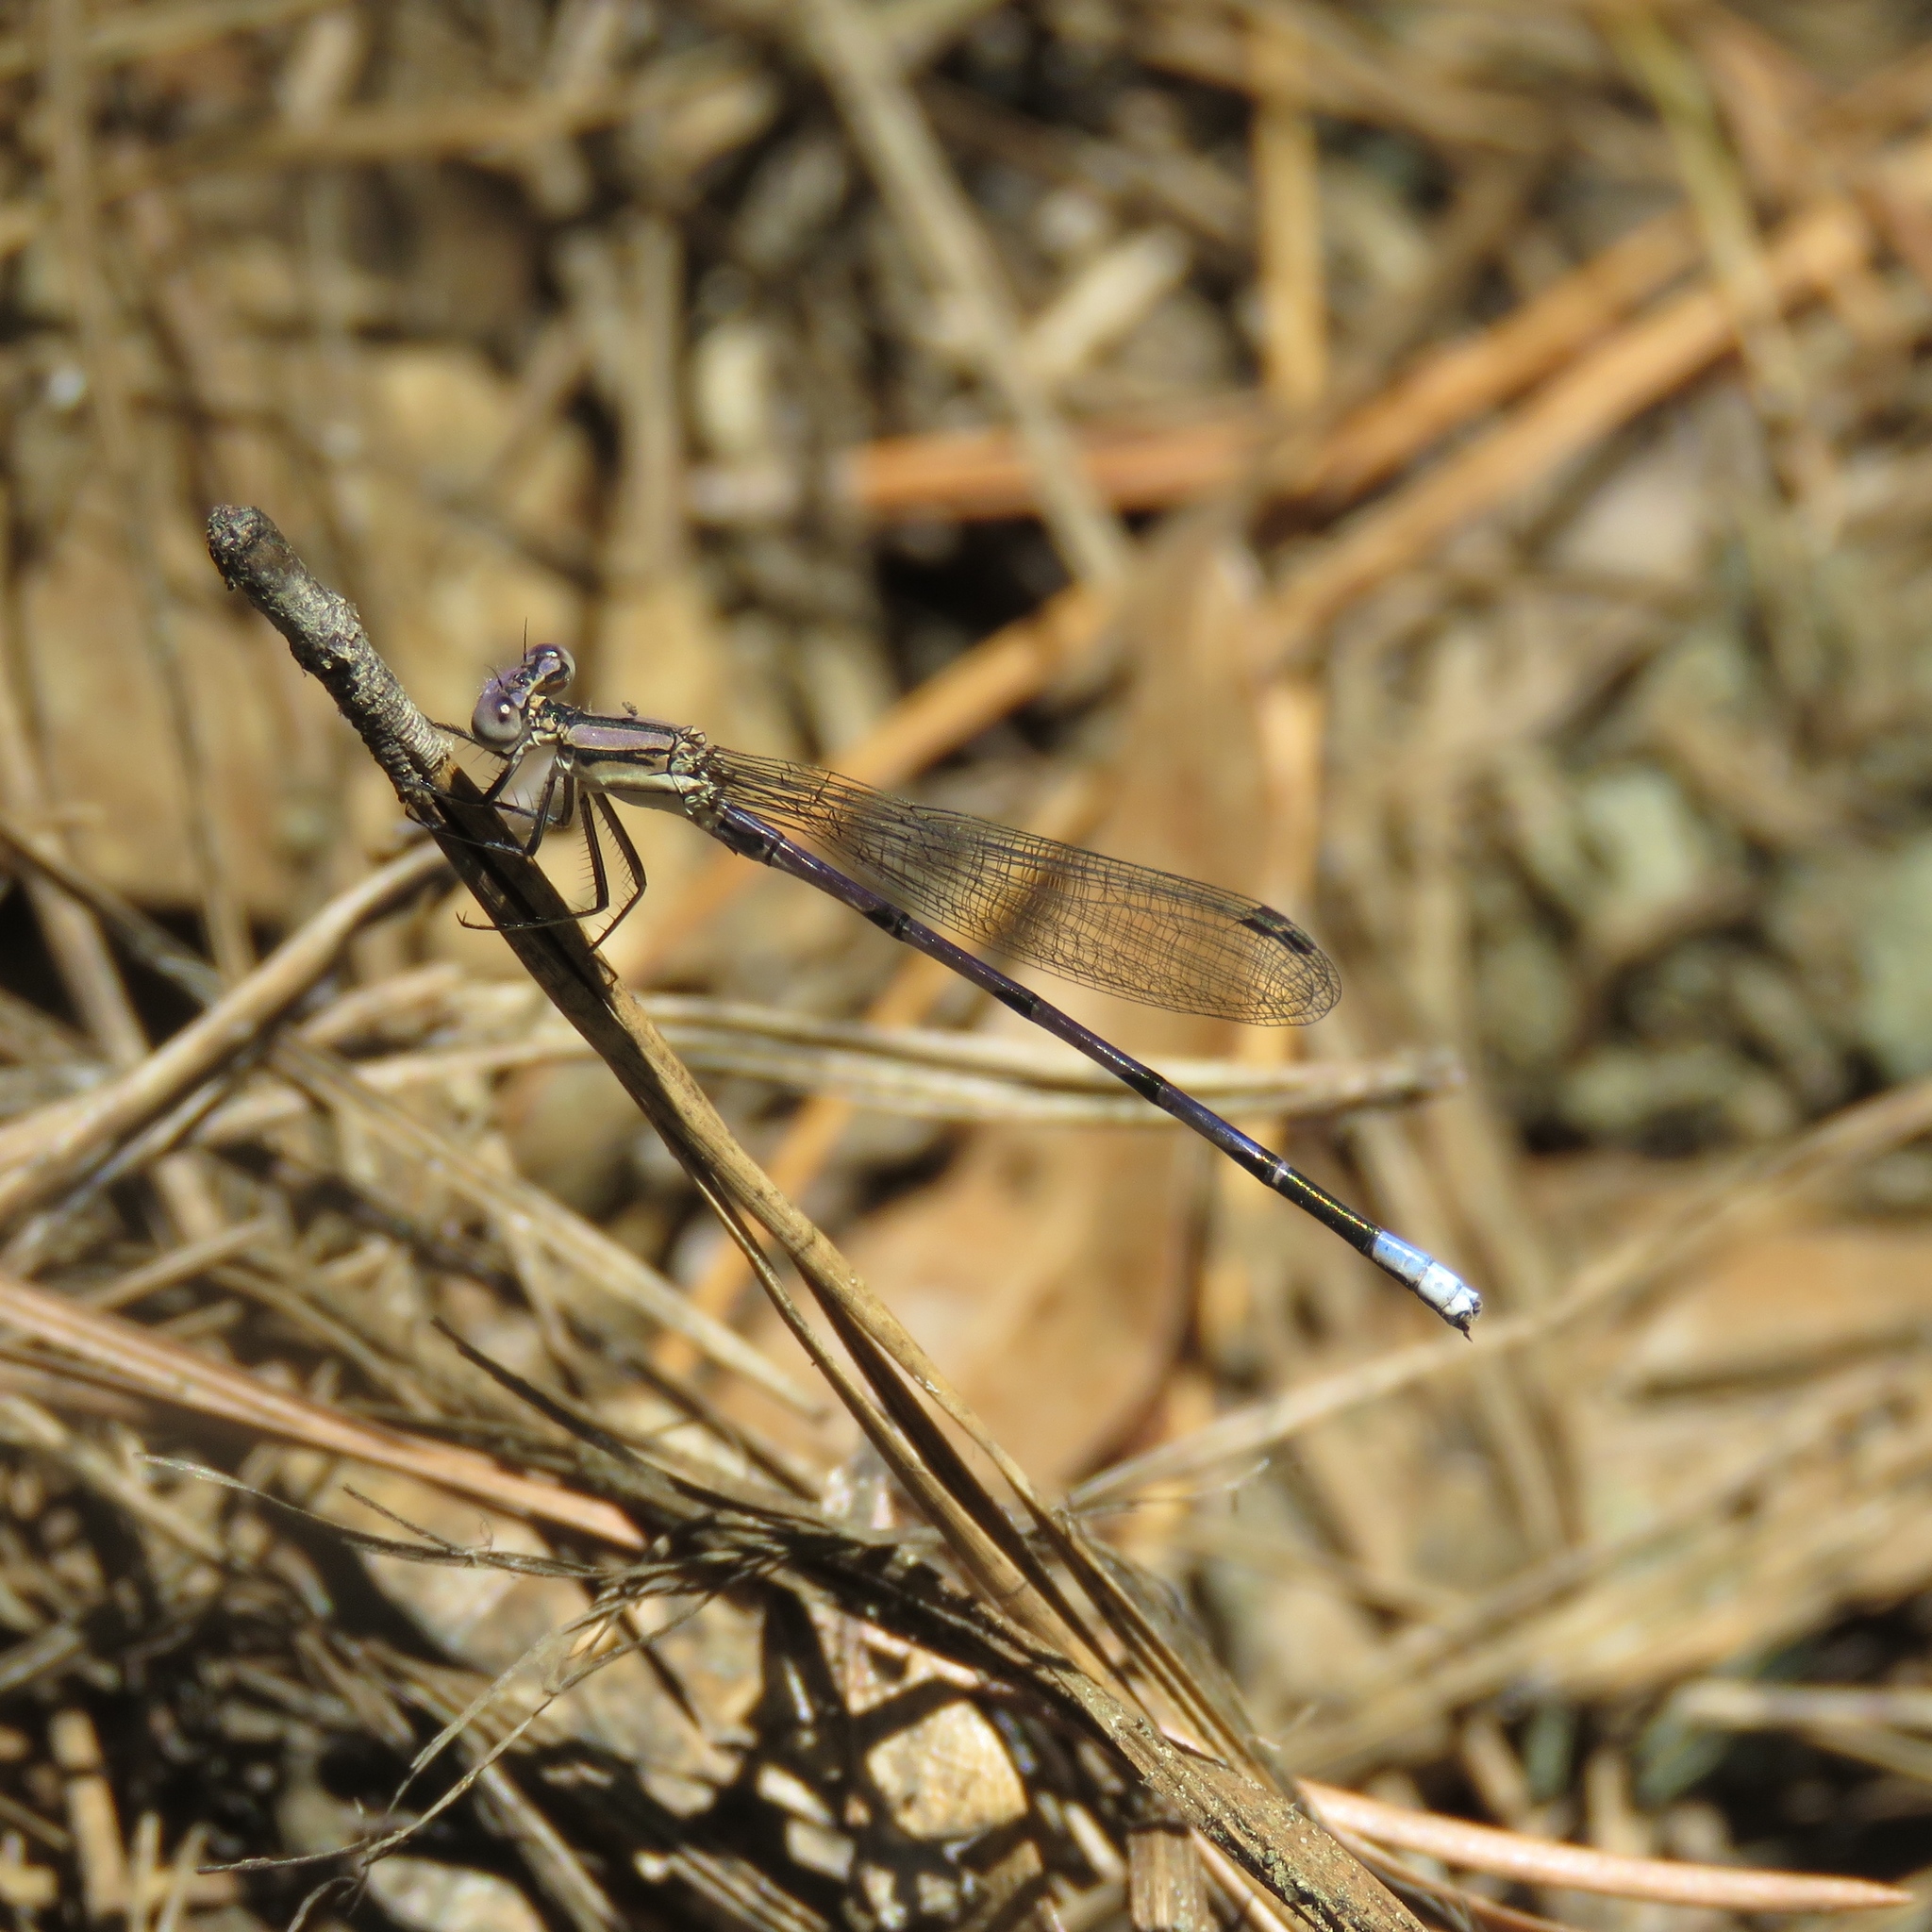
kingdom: Animalia
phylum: Arthropoda
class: Insecta
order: Odonata
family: Coenagrionidae
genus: Argia
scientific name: Argia fumipennis
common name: Variable dancer
